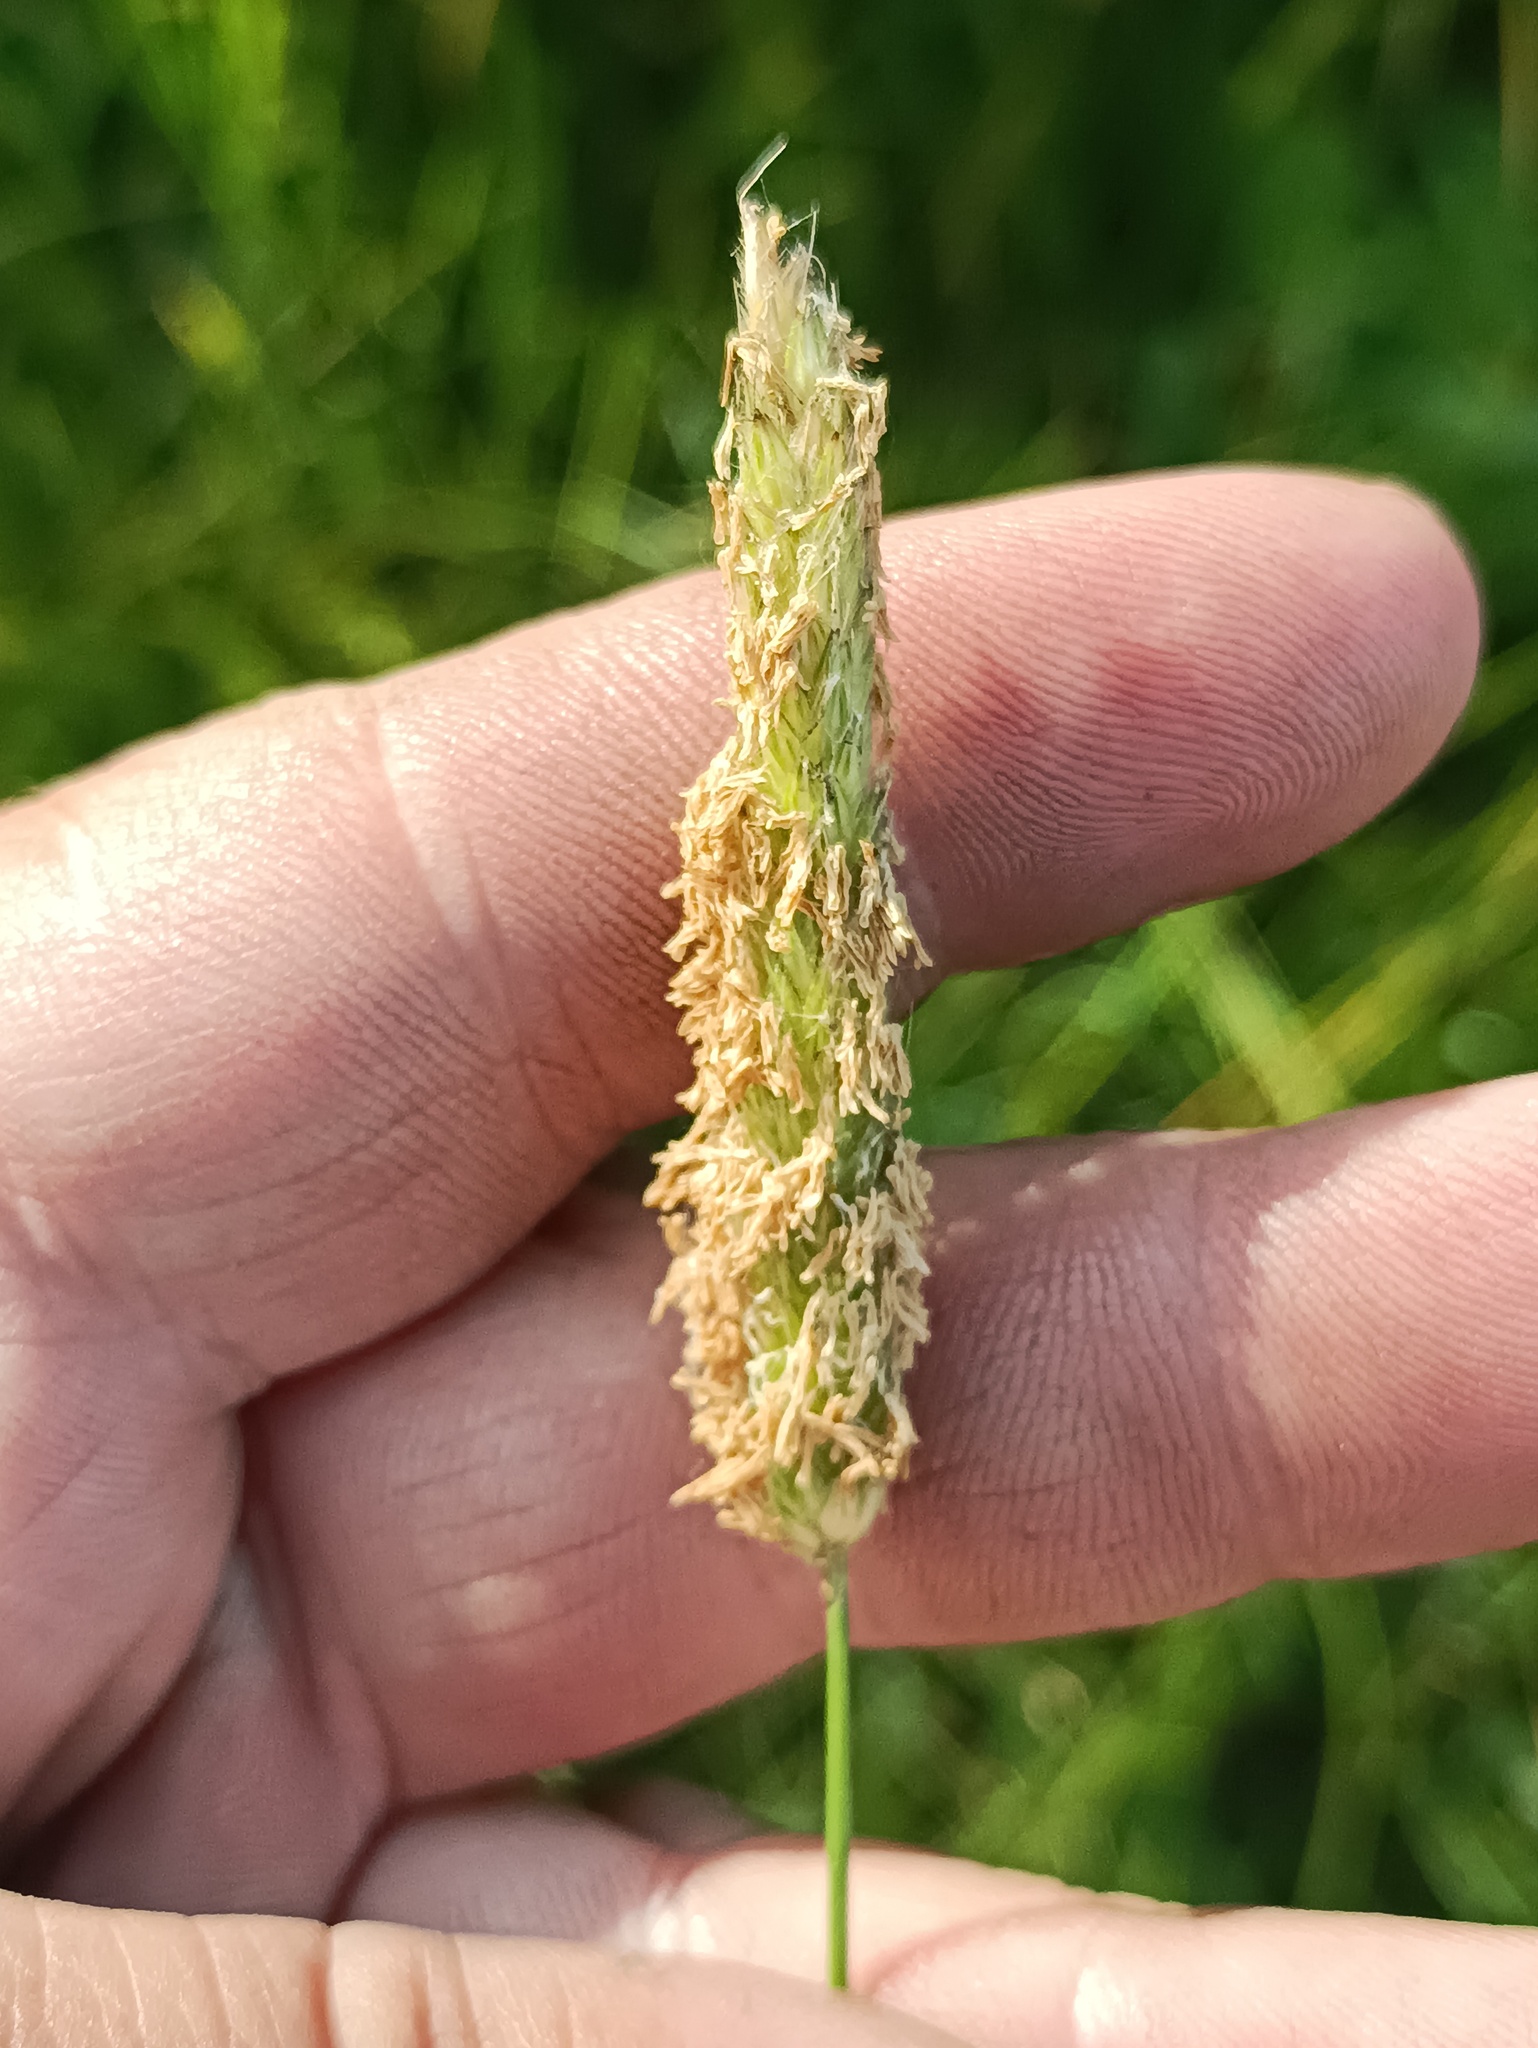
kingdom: Plantae
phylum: Tracheophyta
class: Liliopsida
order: Poales
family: Poaceae
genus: Alopecurus
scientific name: Alopecurus pratensis
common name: Meadow foxtail
